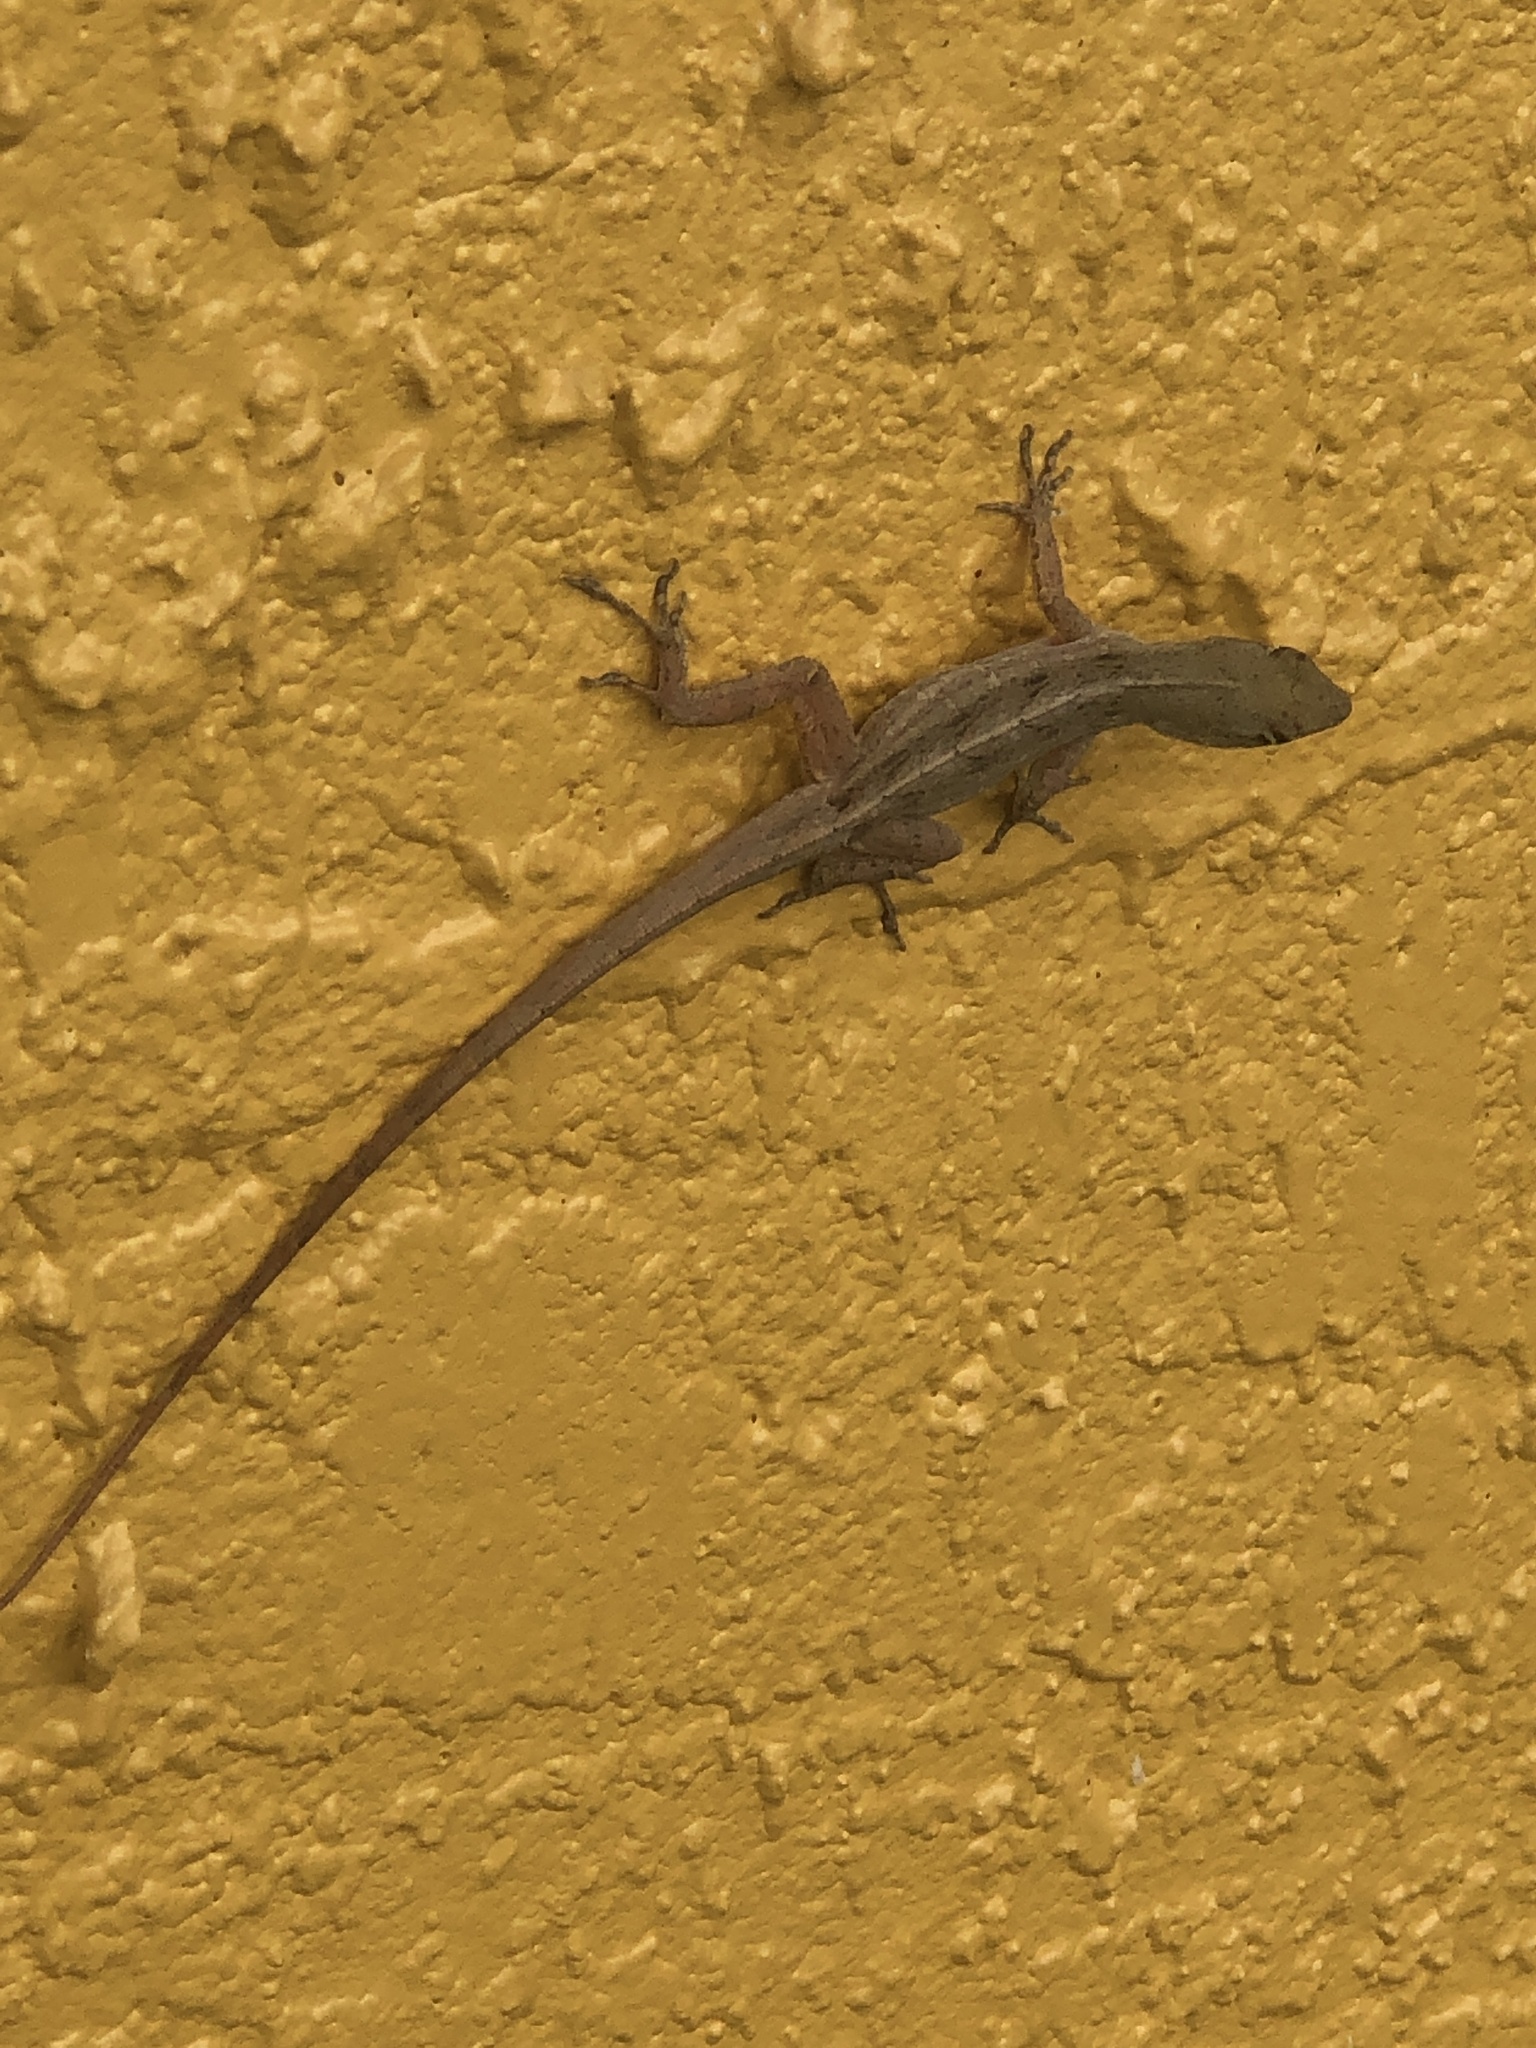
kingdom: Animalia
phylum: Chordata
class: Squamata
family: Dactyloidae
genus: Anolis
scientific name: Anolis sagrei
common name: Brown anole
